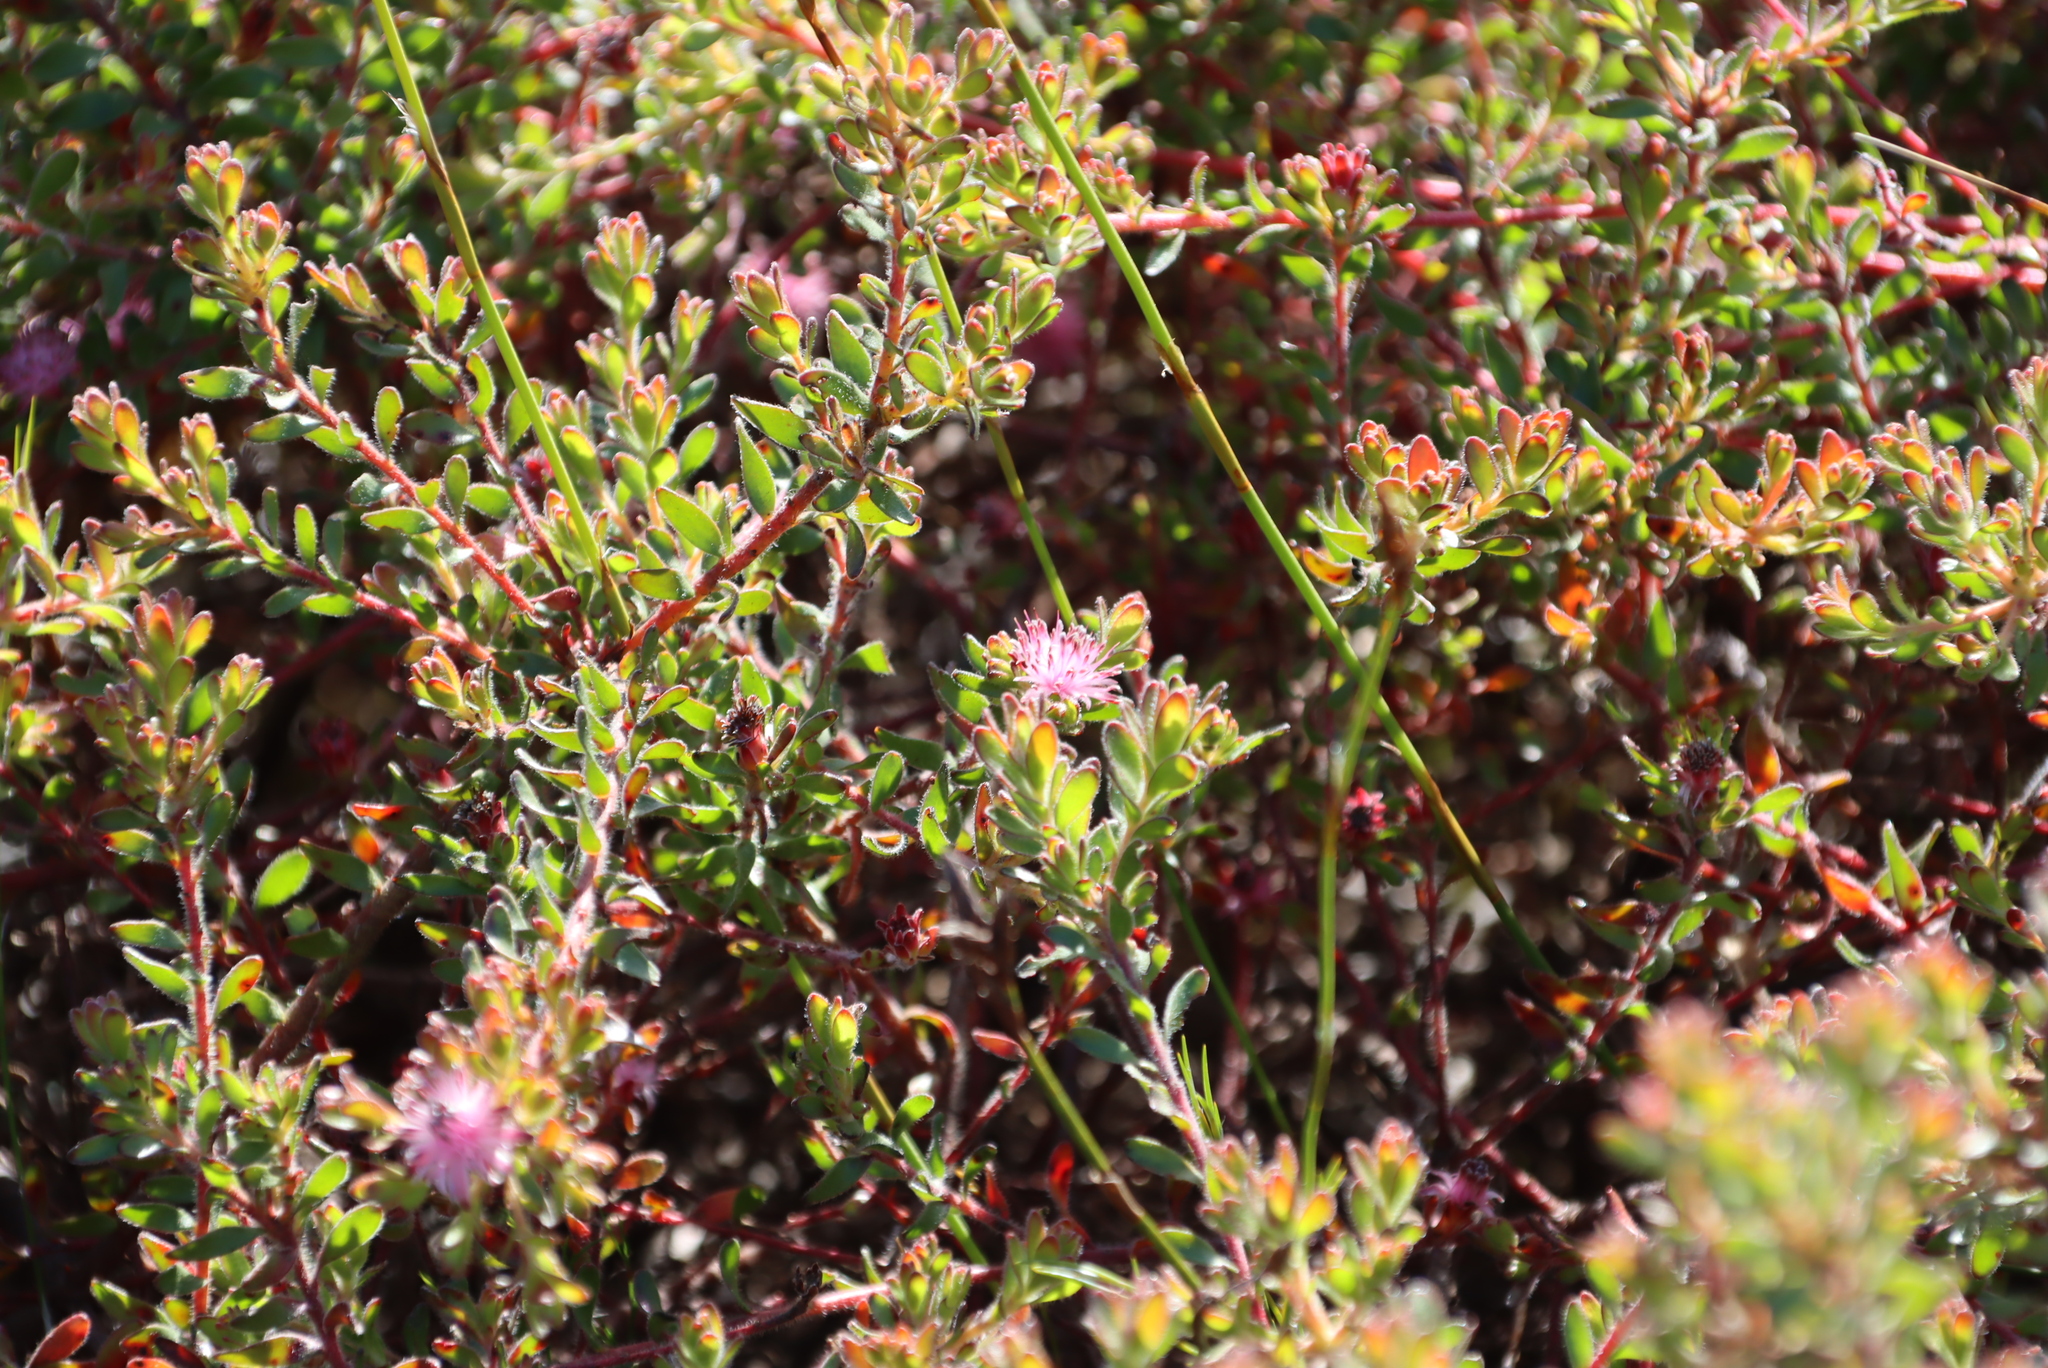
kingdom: Plantae
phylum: Tracheophyta
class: Magnoliopsida
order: Proteales
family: Proteaceae
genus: Diastella
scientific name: Diastella divaricata
